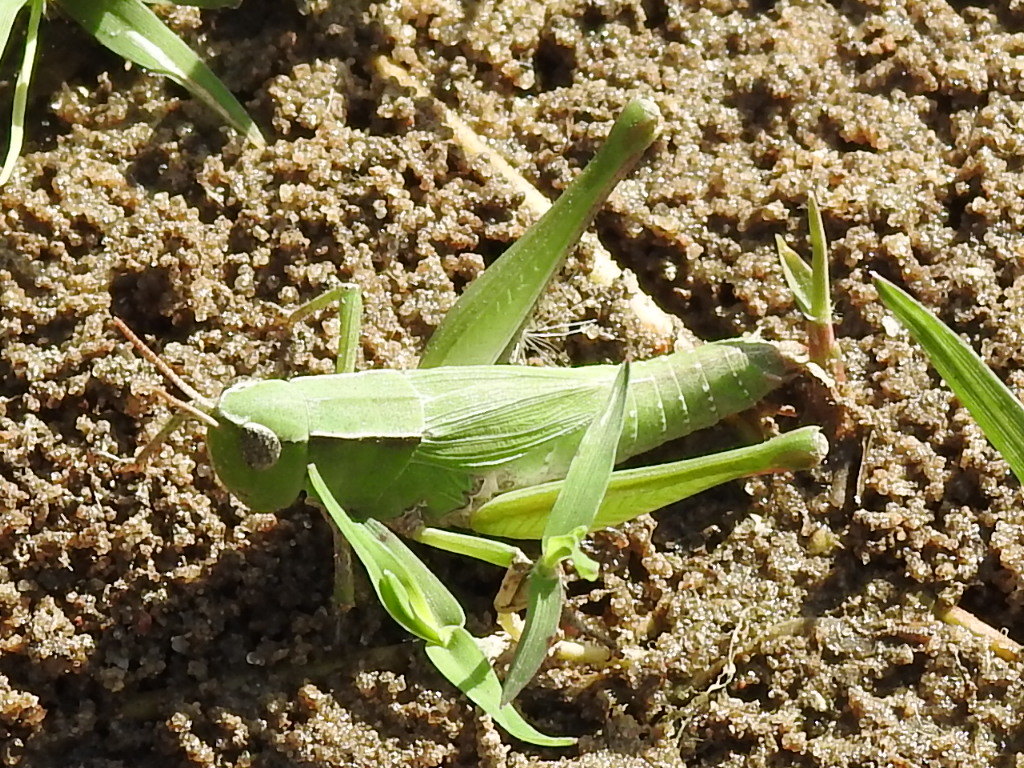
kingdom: Animalia
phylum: Arthropoda
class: Insecta
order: Orthoptera
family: Acrididae
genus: Dichromorpha
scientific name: Dichromorpha viridis
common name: Short-winged green grasshopper
